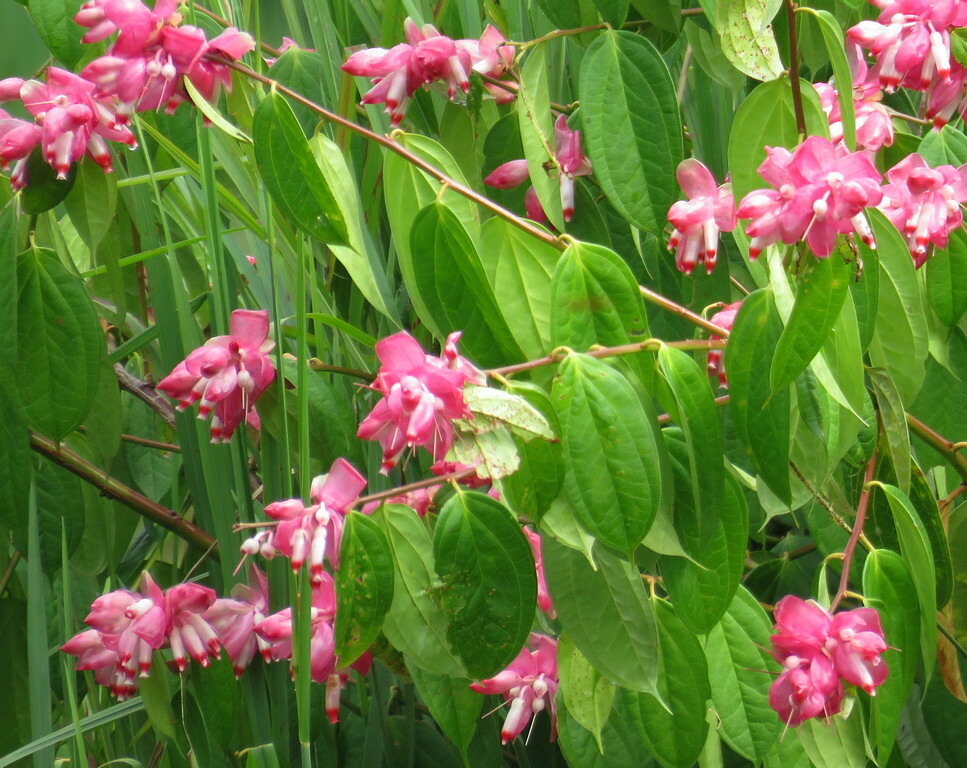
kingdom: Plantae
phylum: Tracheophyta
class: Magnoliopsida
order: Ericales
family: Ericaceae
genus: Cavendishia
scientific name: Cavendishia tarapotana
